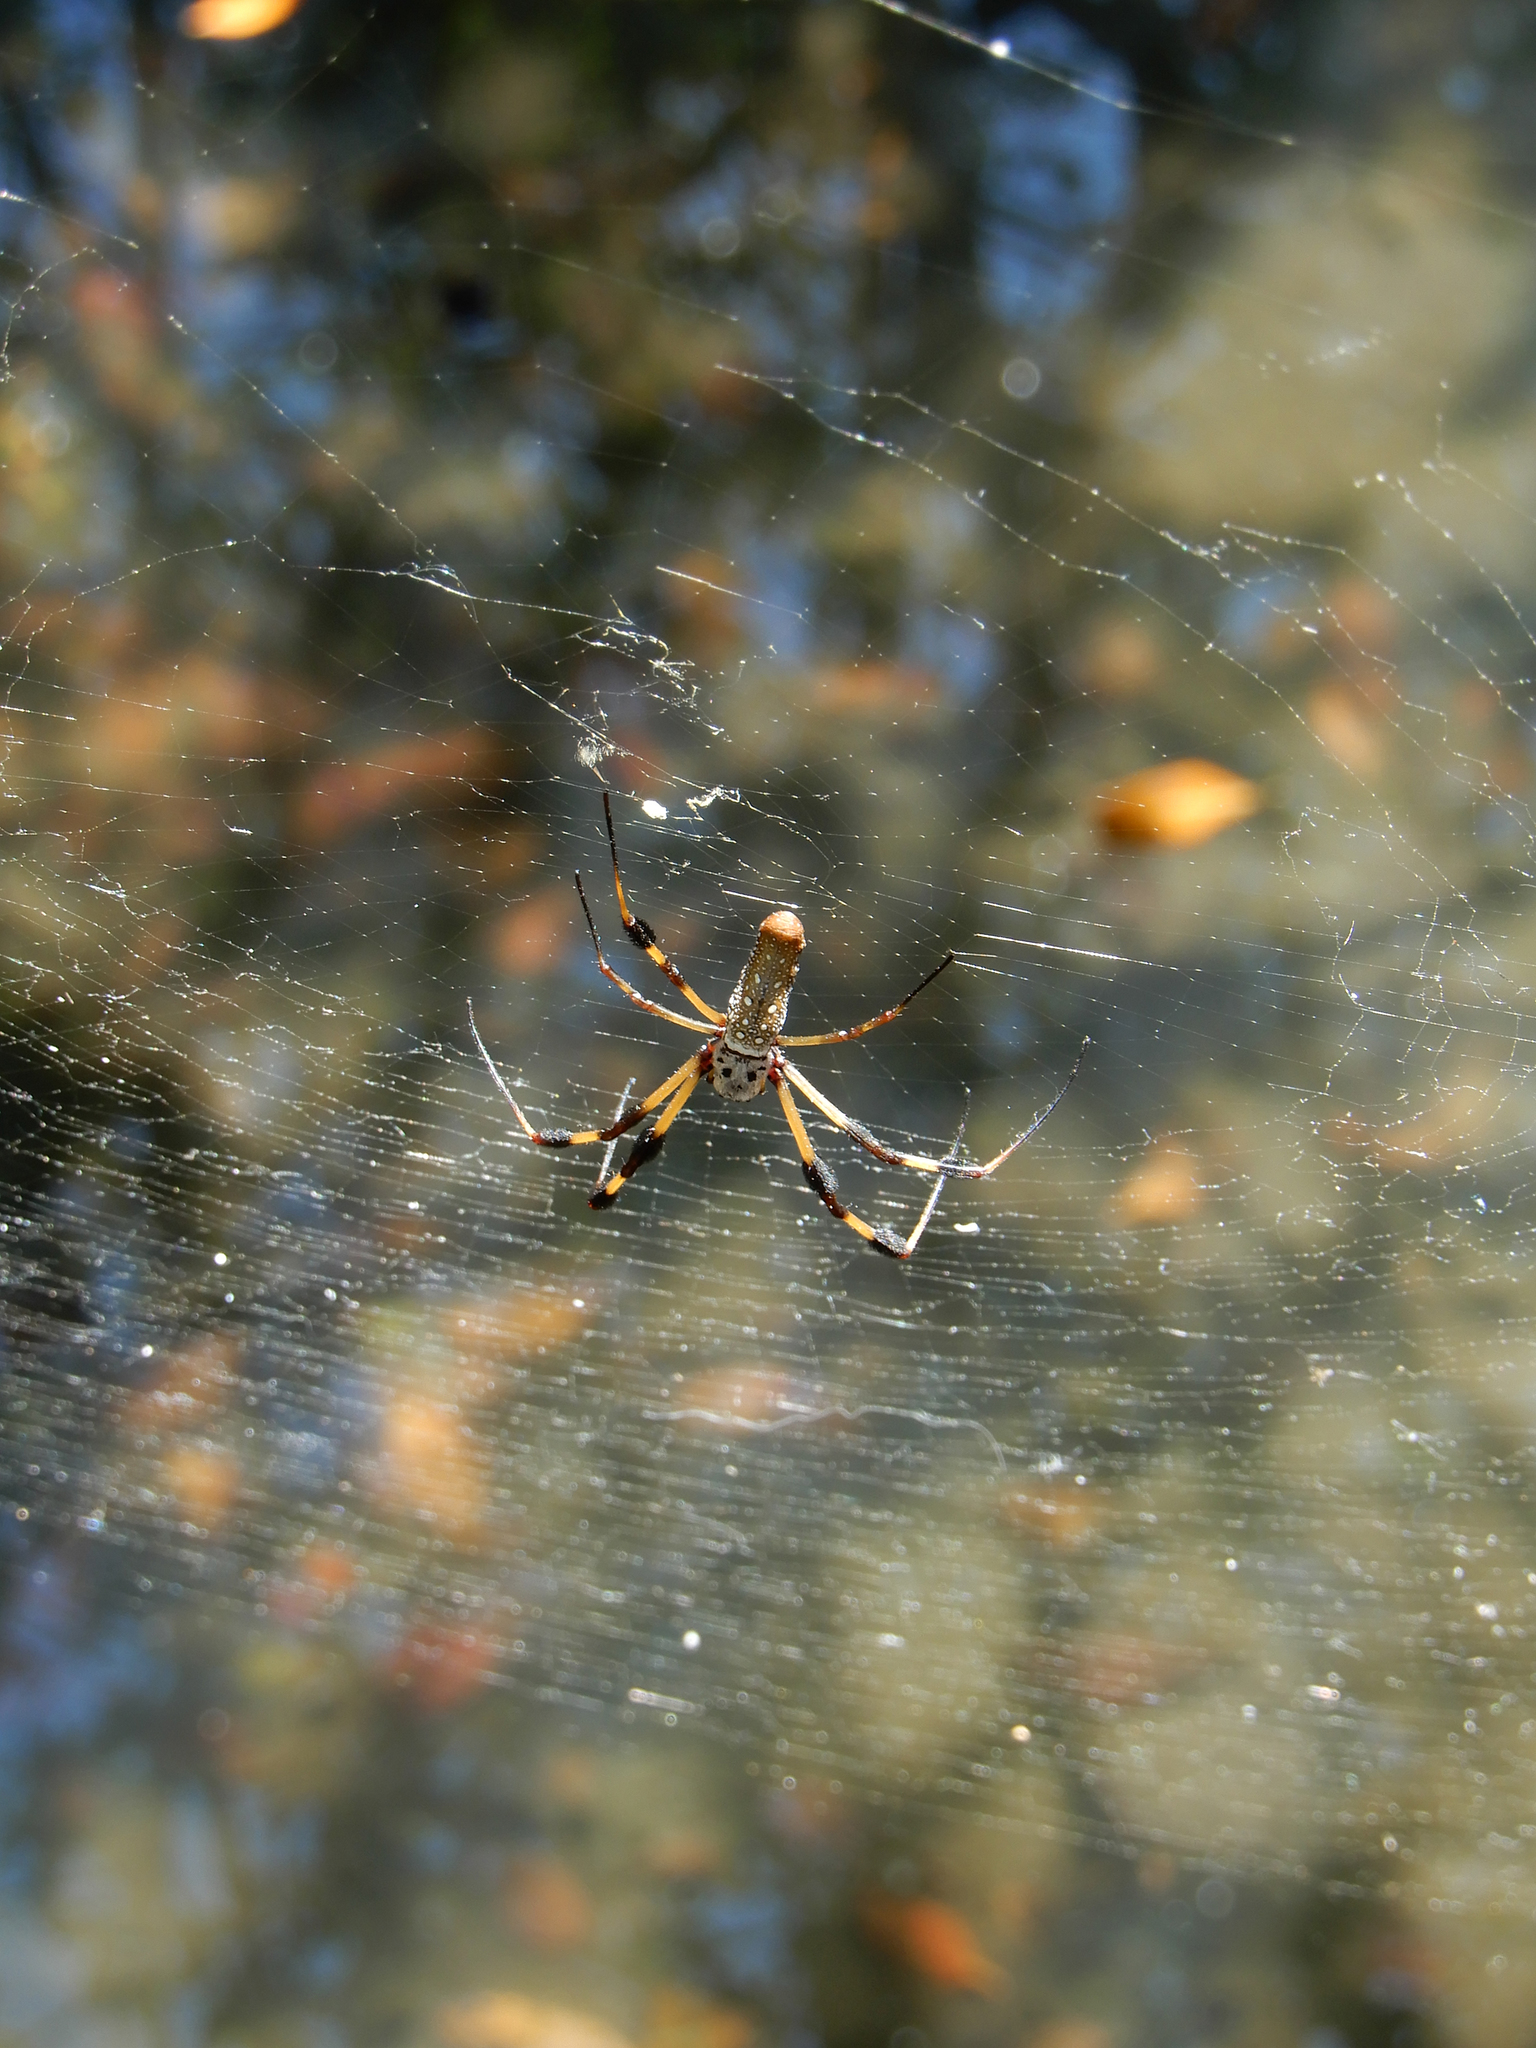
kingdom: Animalia
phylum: Arthropoda
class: Arachnida
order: Araneae
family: Araneidae
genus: Trichonephila
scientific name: Trichonephila clavipes
